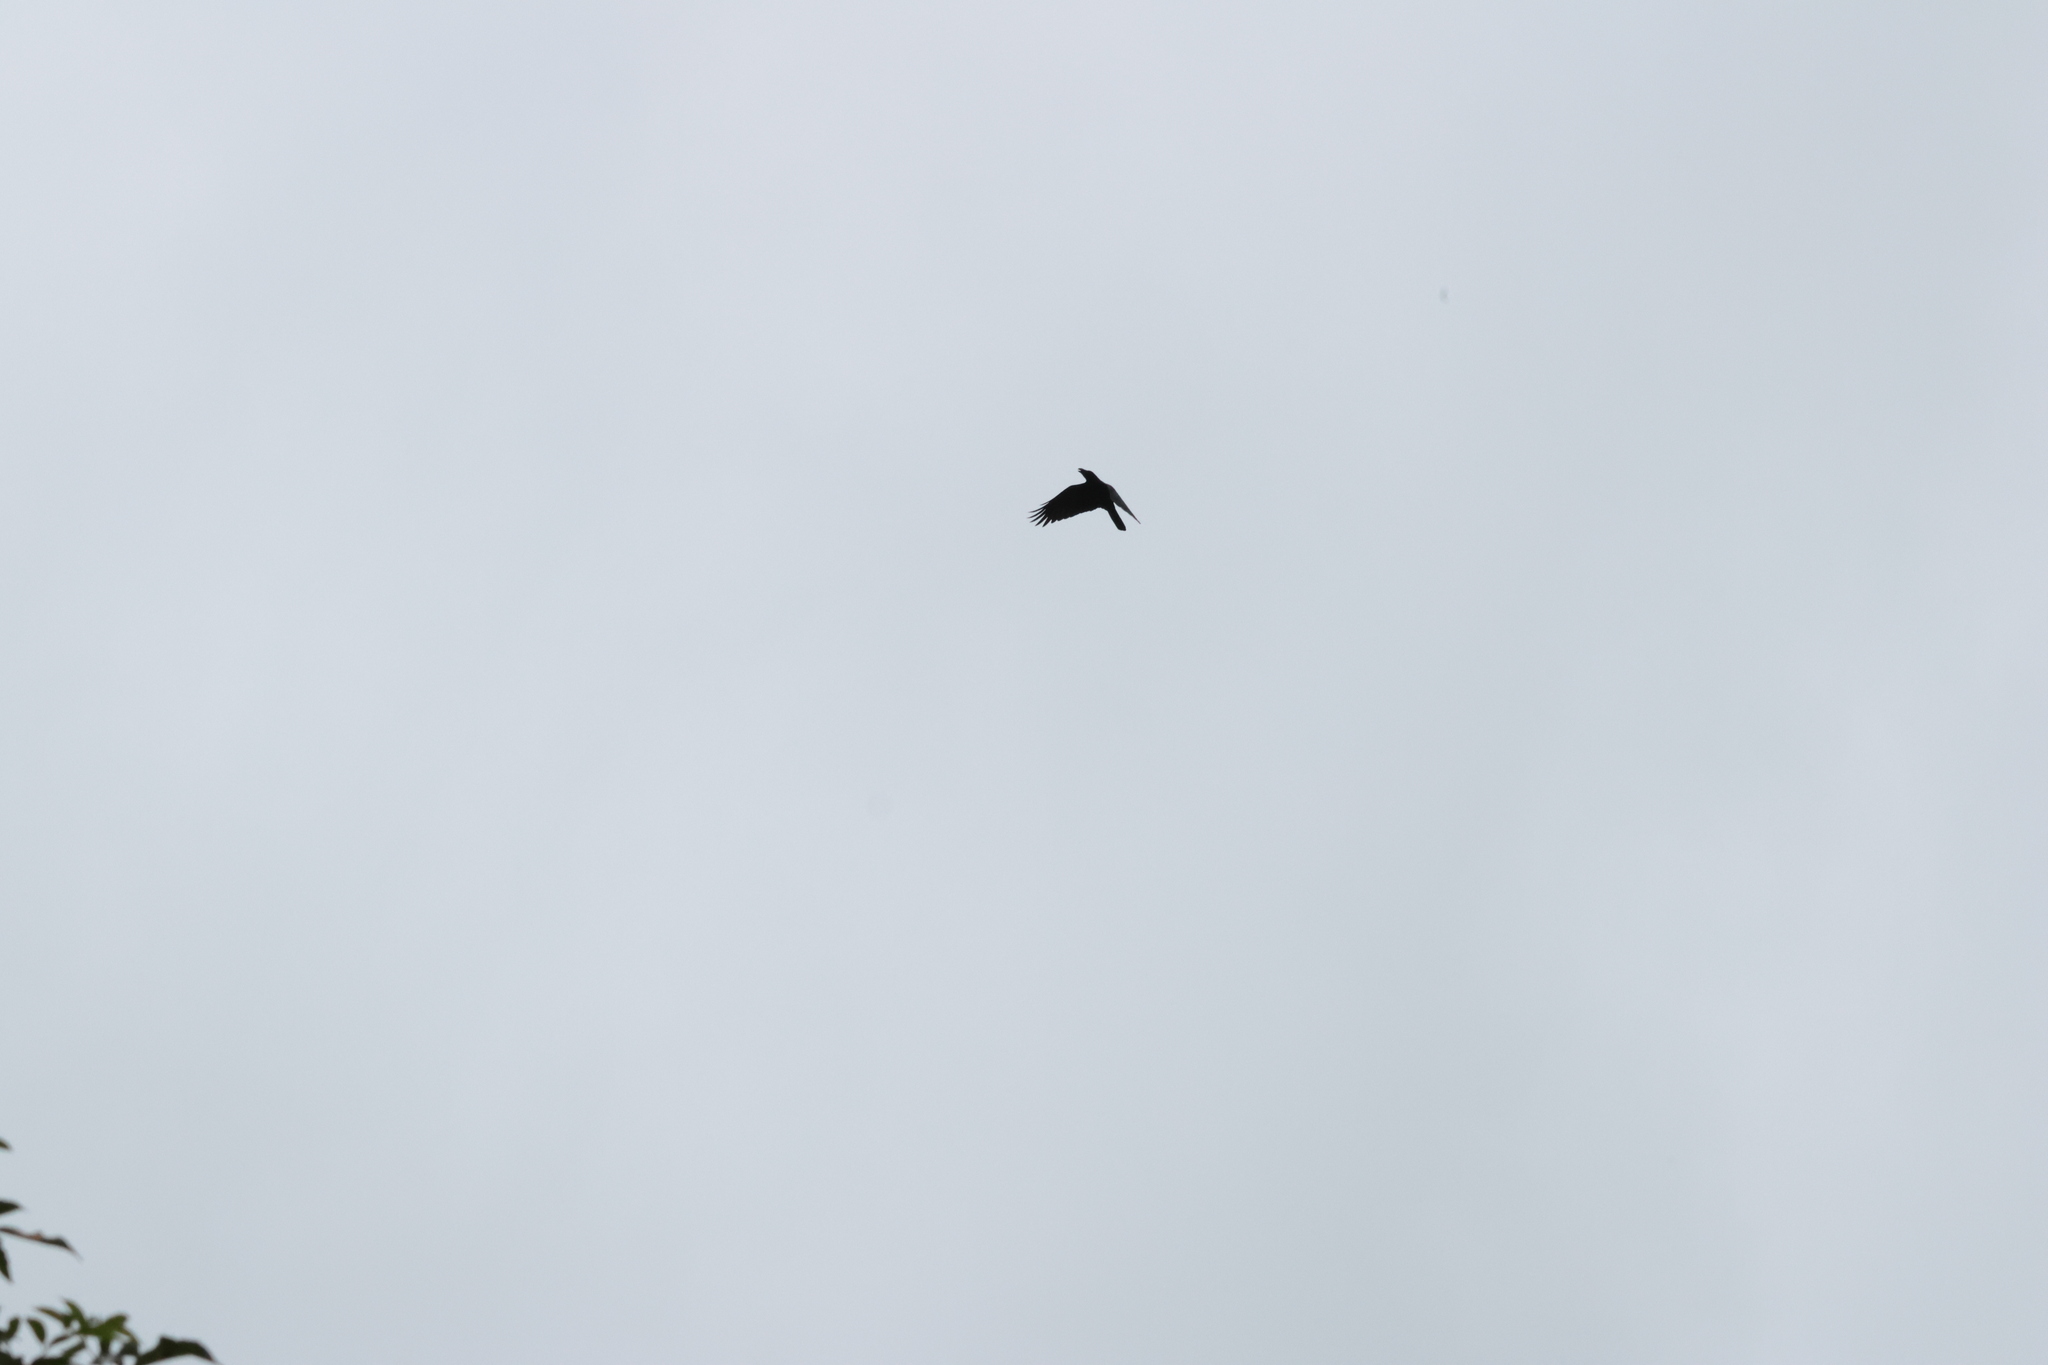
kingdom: Animalia
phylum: Chordata
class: Aves
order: Passeriformes
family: Corvidae
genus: Corvus
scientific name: Corvus macrorhynchos
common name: Large-billed crow
